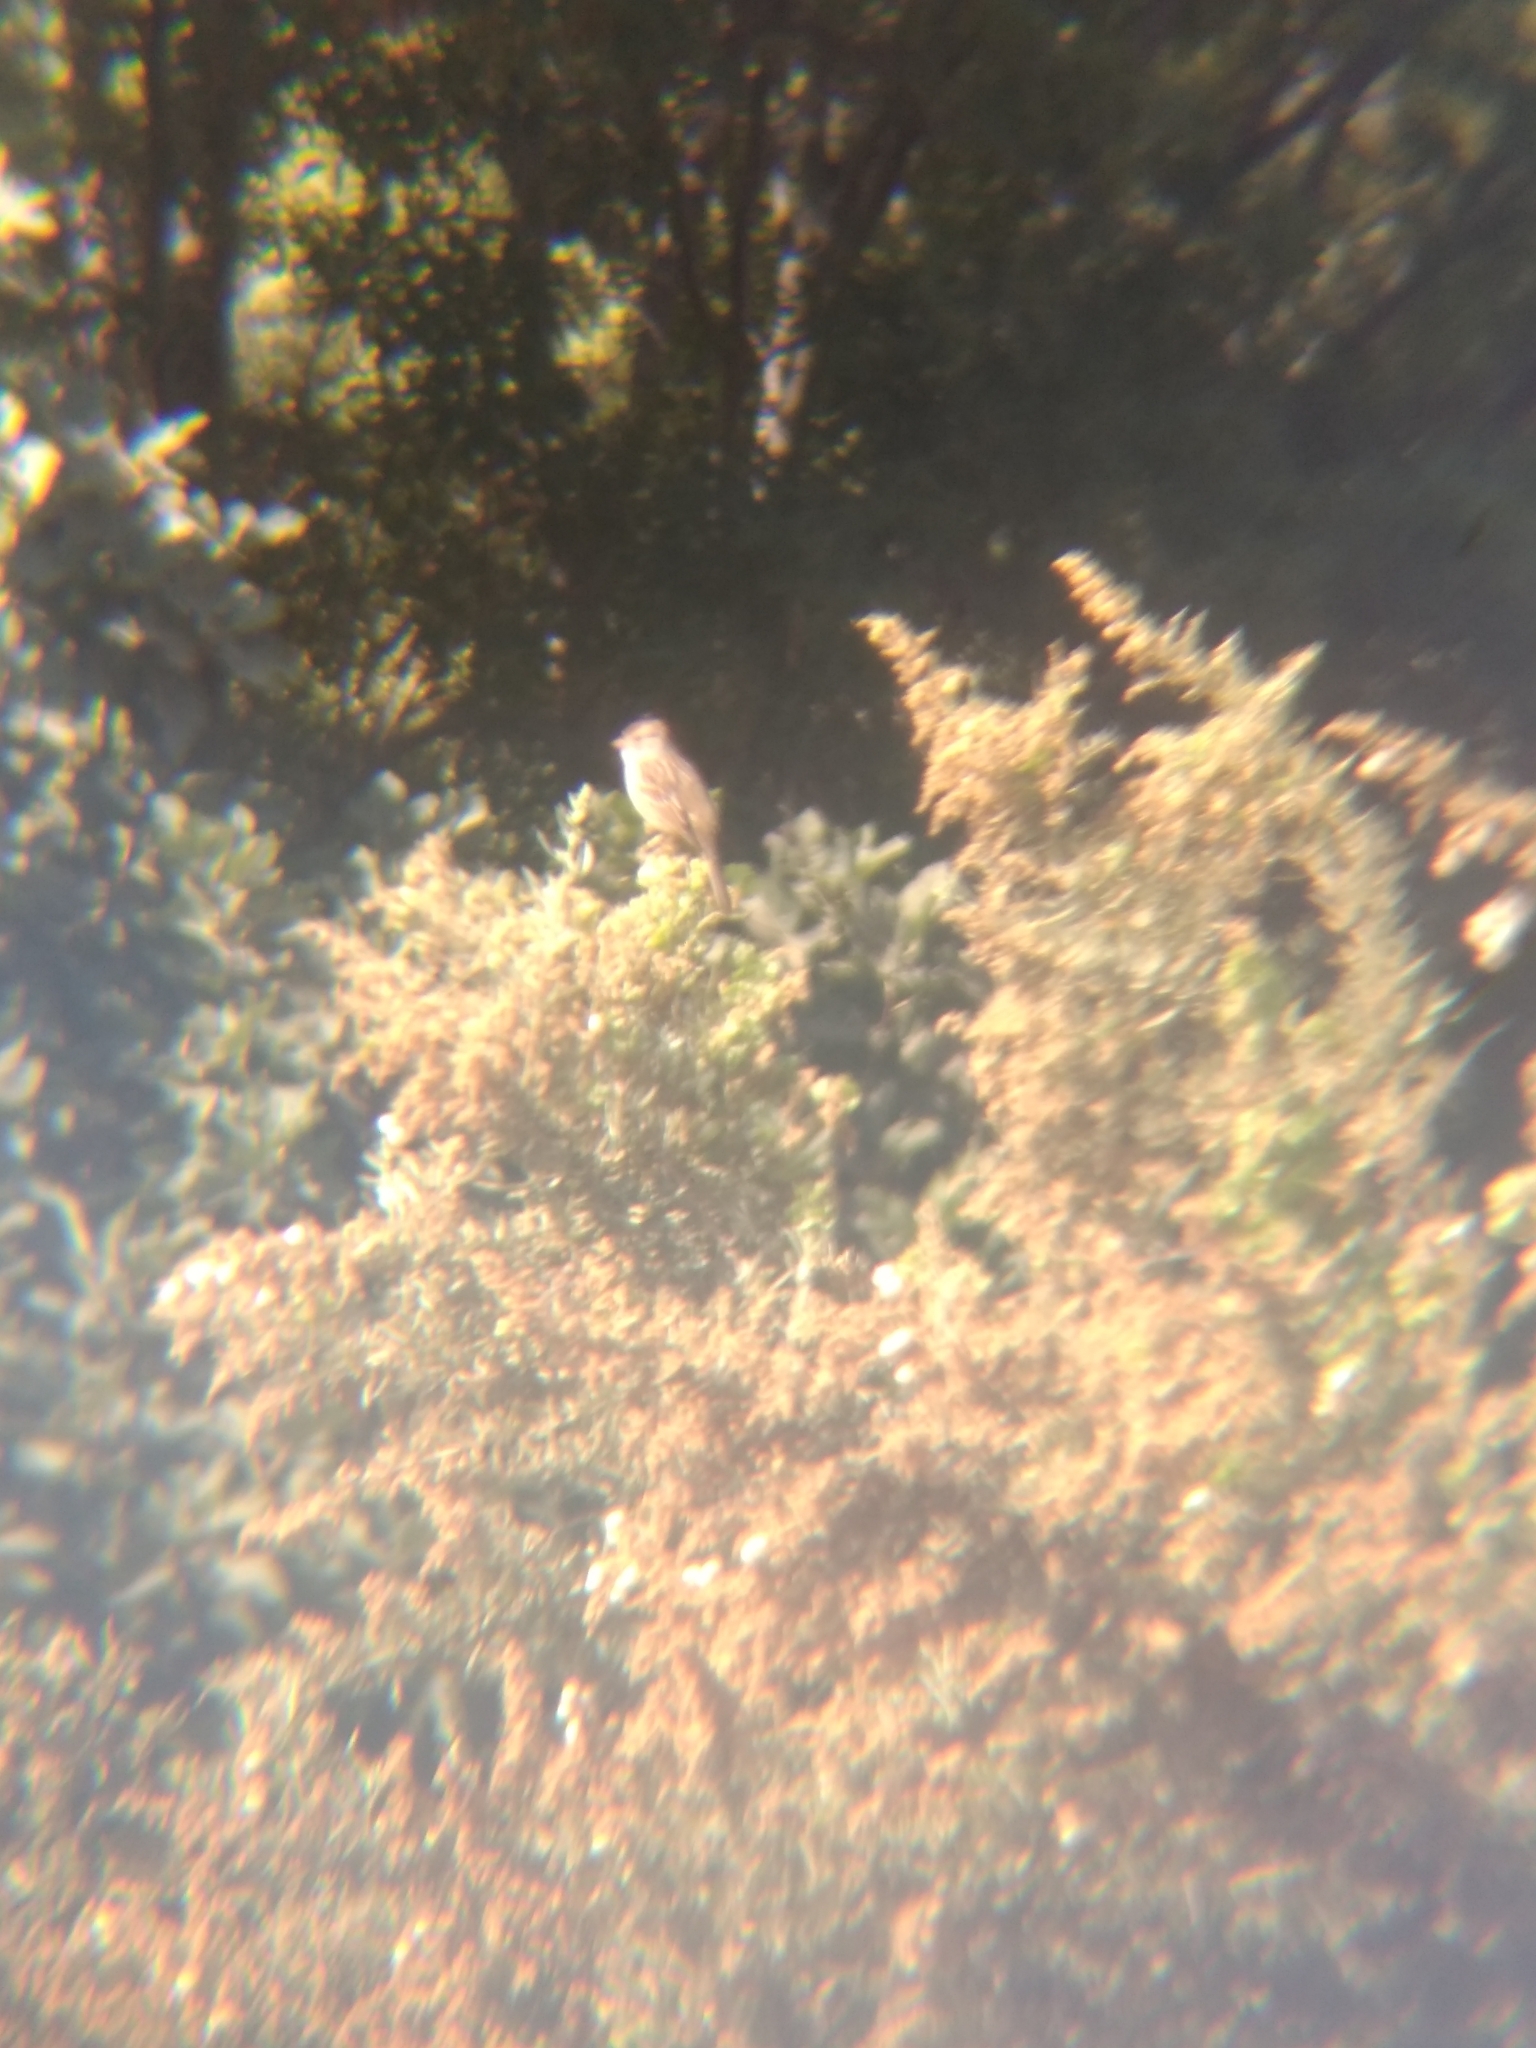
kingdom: Animalia
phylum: Chordata
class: Aves
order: Passeriformes
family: Passerellidae
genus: Zonotrichia
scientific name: Zonotrichia leucophrys
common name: White-crowned sparrow
